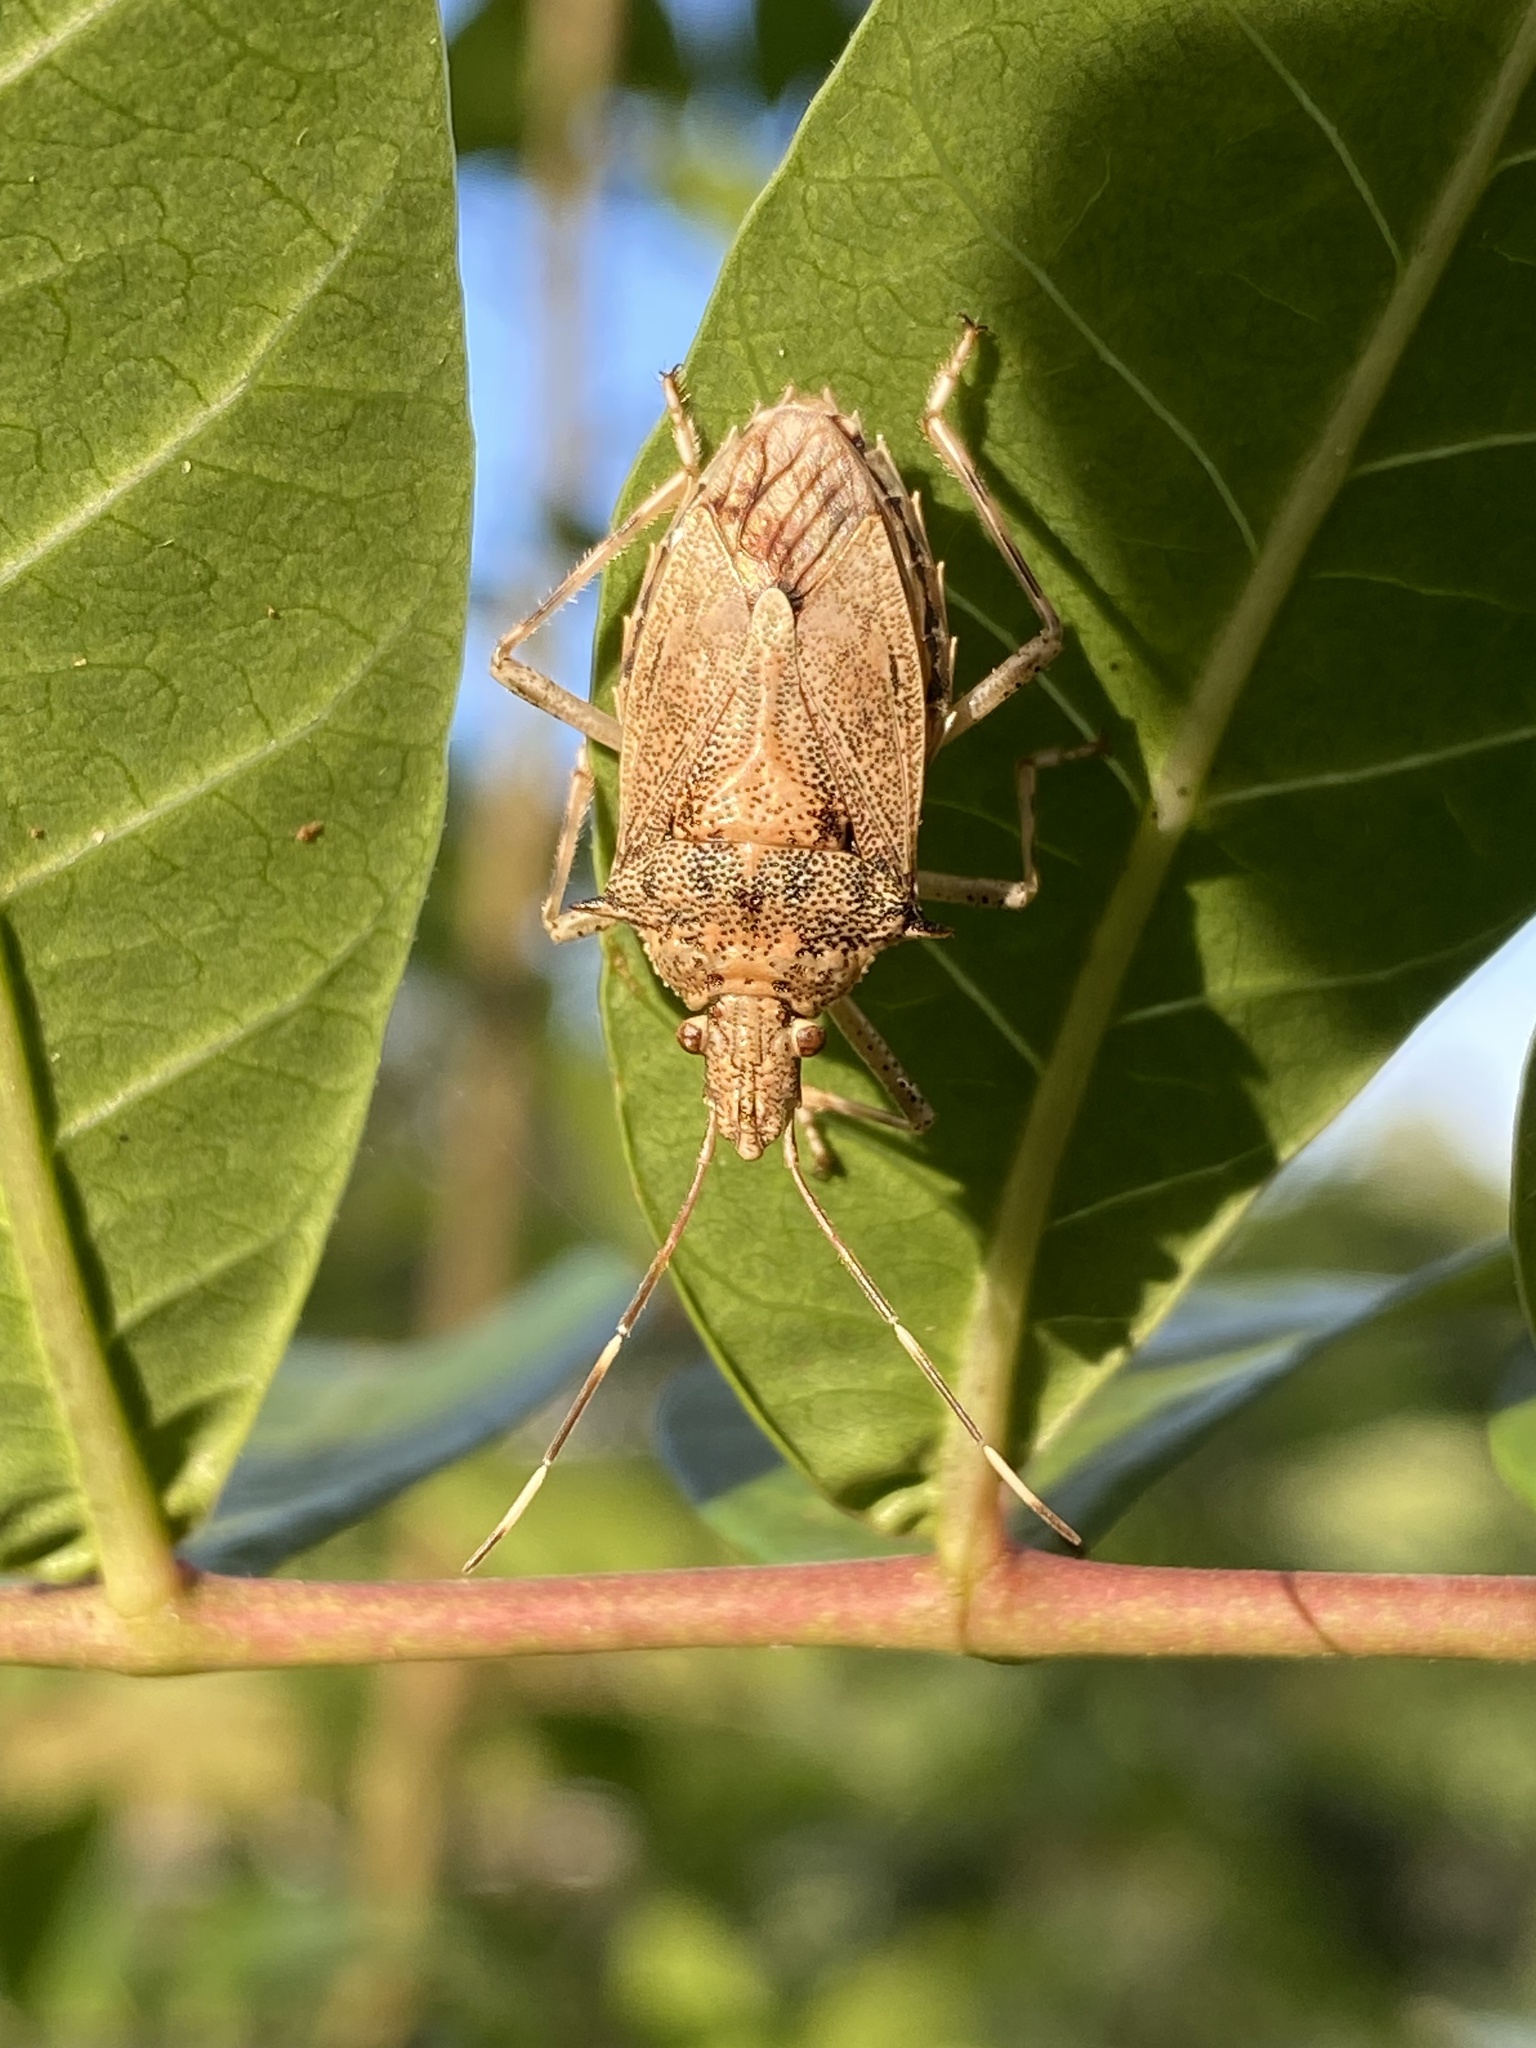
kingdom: Animalia
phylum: Arthropoda
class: Insecta
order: Hemiptera
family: Pentatomidae
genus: Bromocoris
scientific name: Bromocoris
